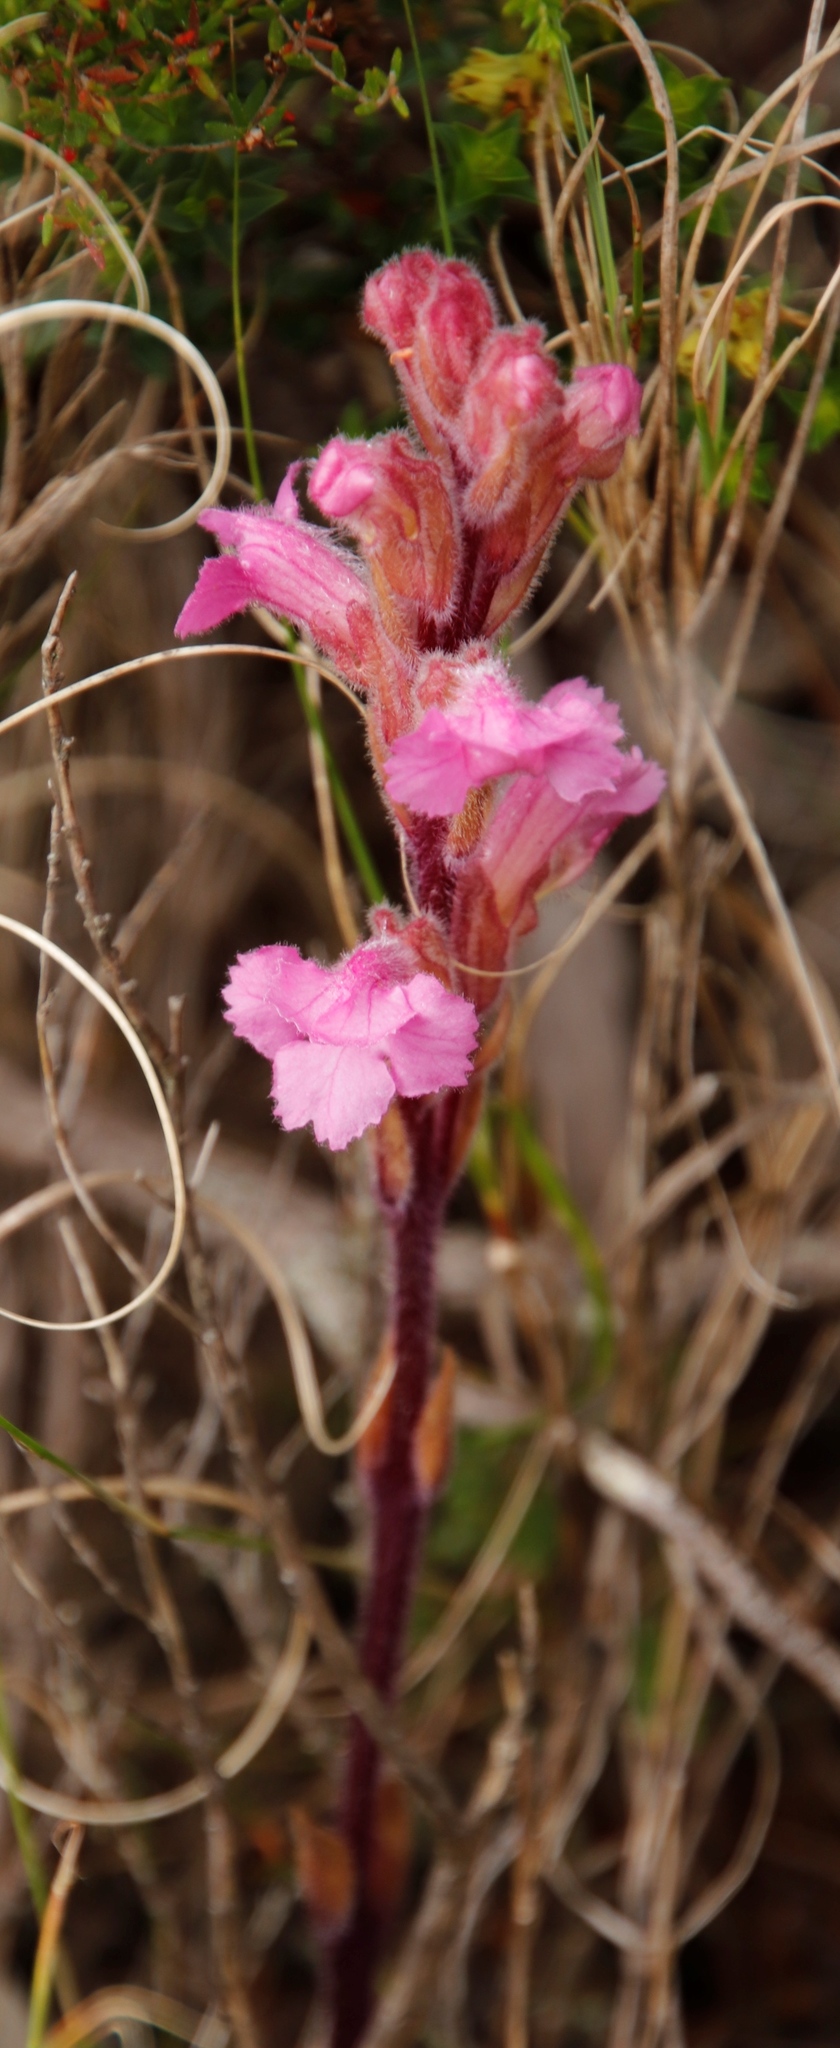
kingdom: Plantae
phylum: Tracheophyta
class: Magnoliopsida
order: Lamiales
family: Orobanchaceae
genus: Harveya
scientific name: Harveya pauciflora
